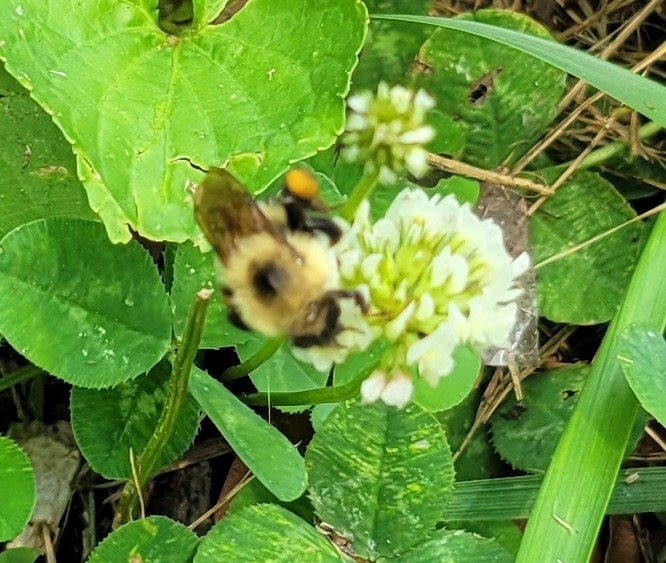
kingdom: Animalia
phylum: Arthropoda
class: Insecta
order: Hymenoptera
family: Apidae
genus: Bombus
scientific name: Bombus bimaculatus
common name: Two-spotted bumble bee
